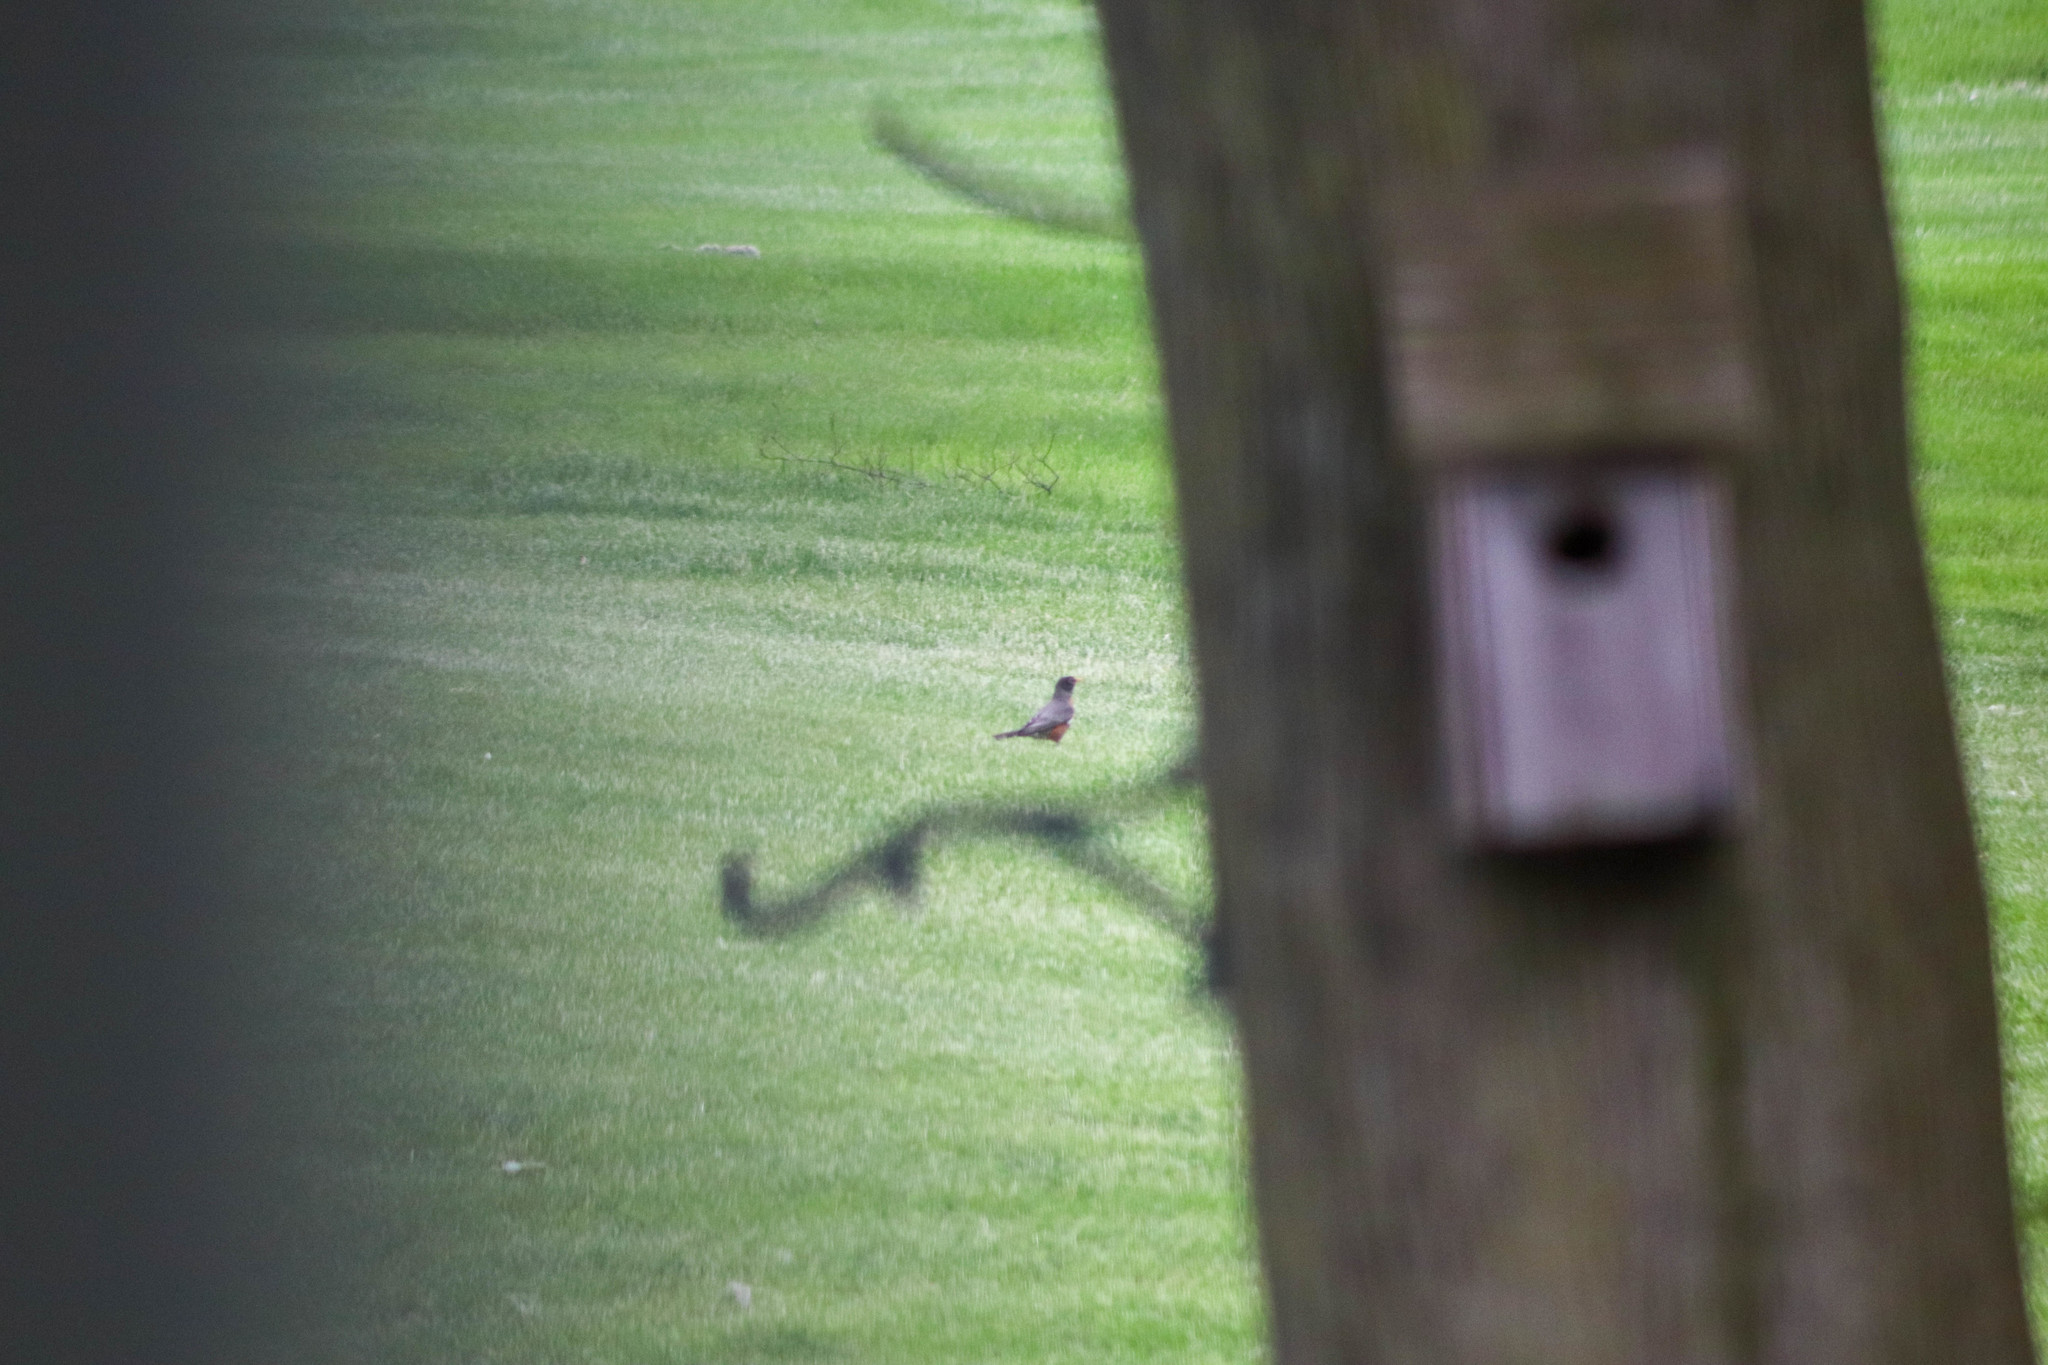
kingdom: Animalia
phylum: Chordata
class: Aves
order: Passeriformes
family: Turdidae
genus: Turdus
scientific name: Turdus migratorius
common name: American robin
